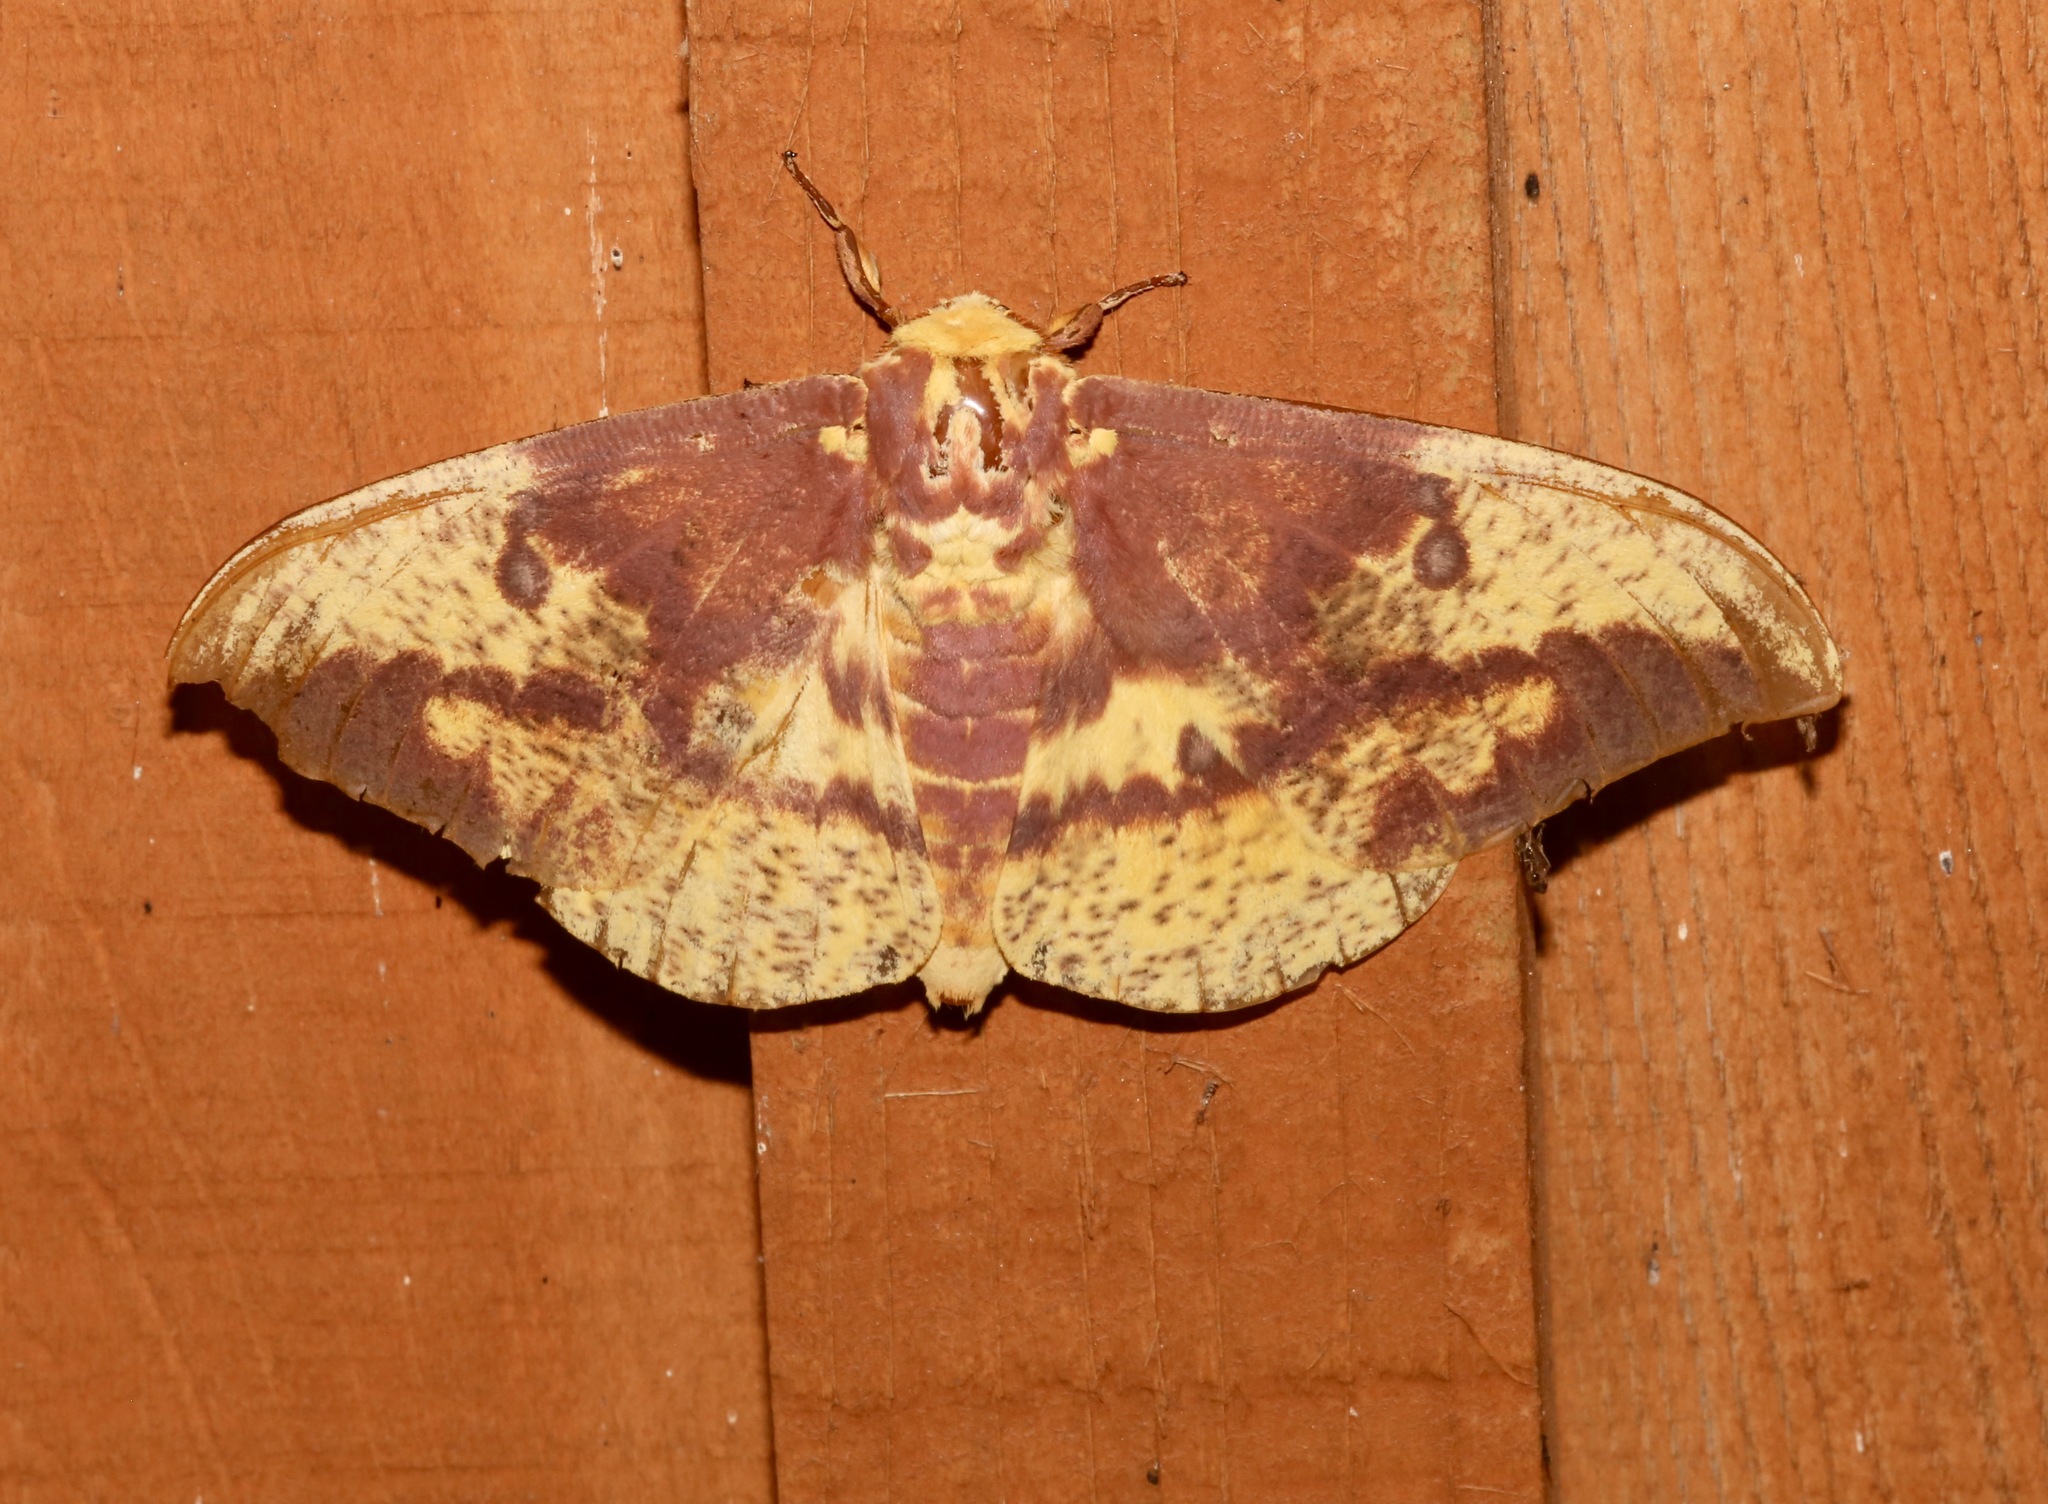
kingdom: Animalia
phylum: Arthropoda
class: Insecta
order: Lepidoptera
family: Saturniidae
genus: Eacles
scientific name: Eacles imperialis
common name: Imperial moth
